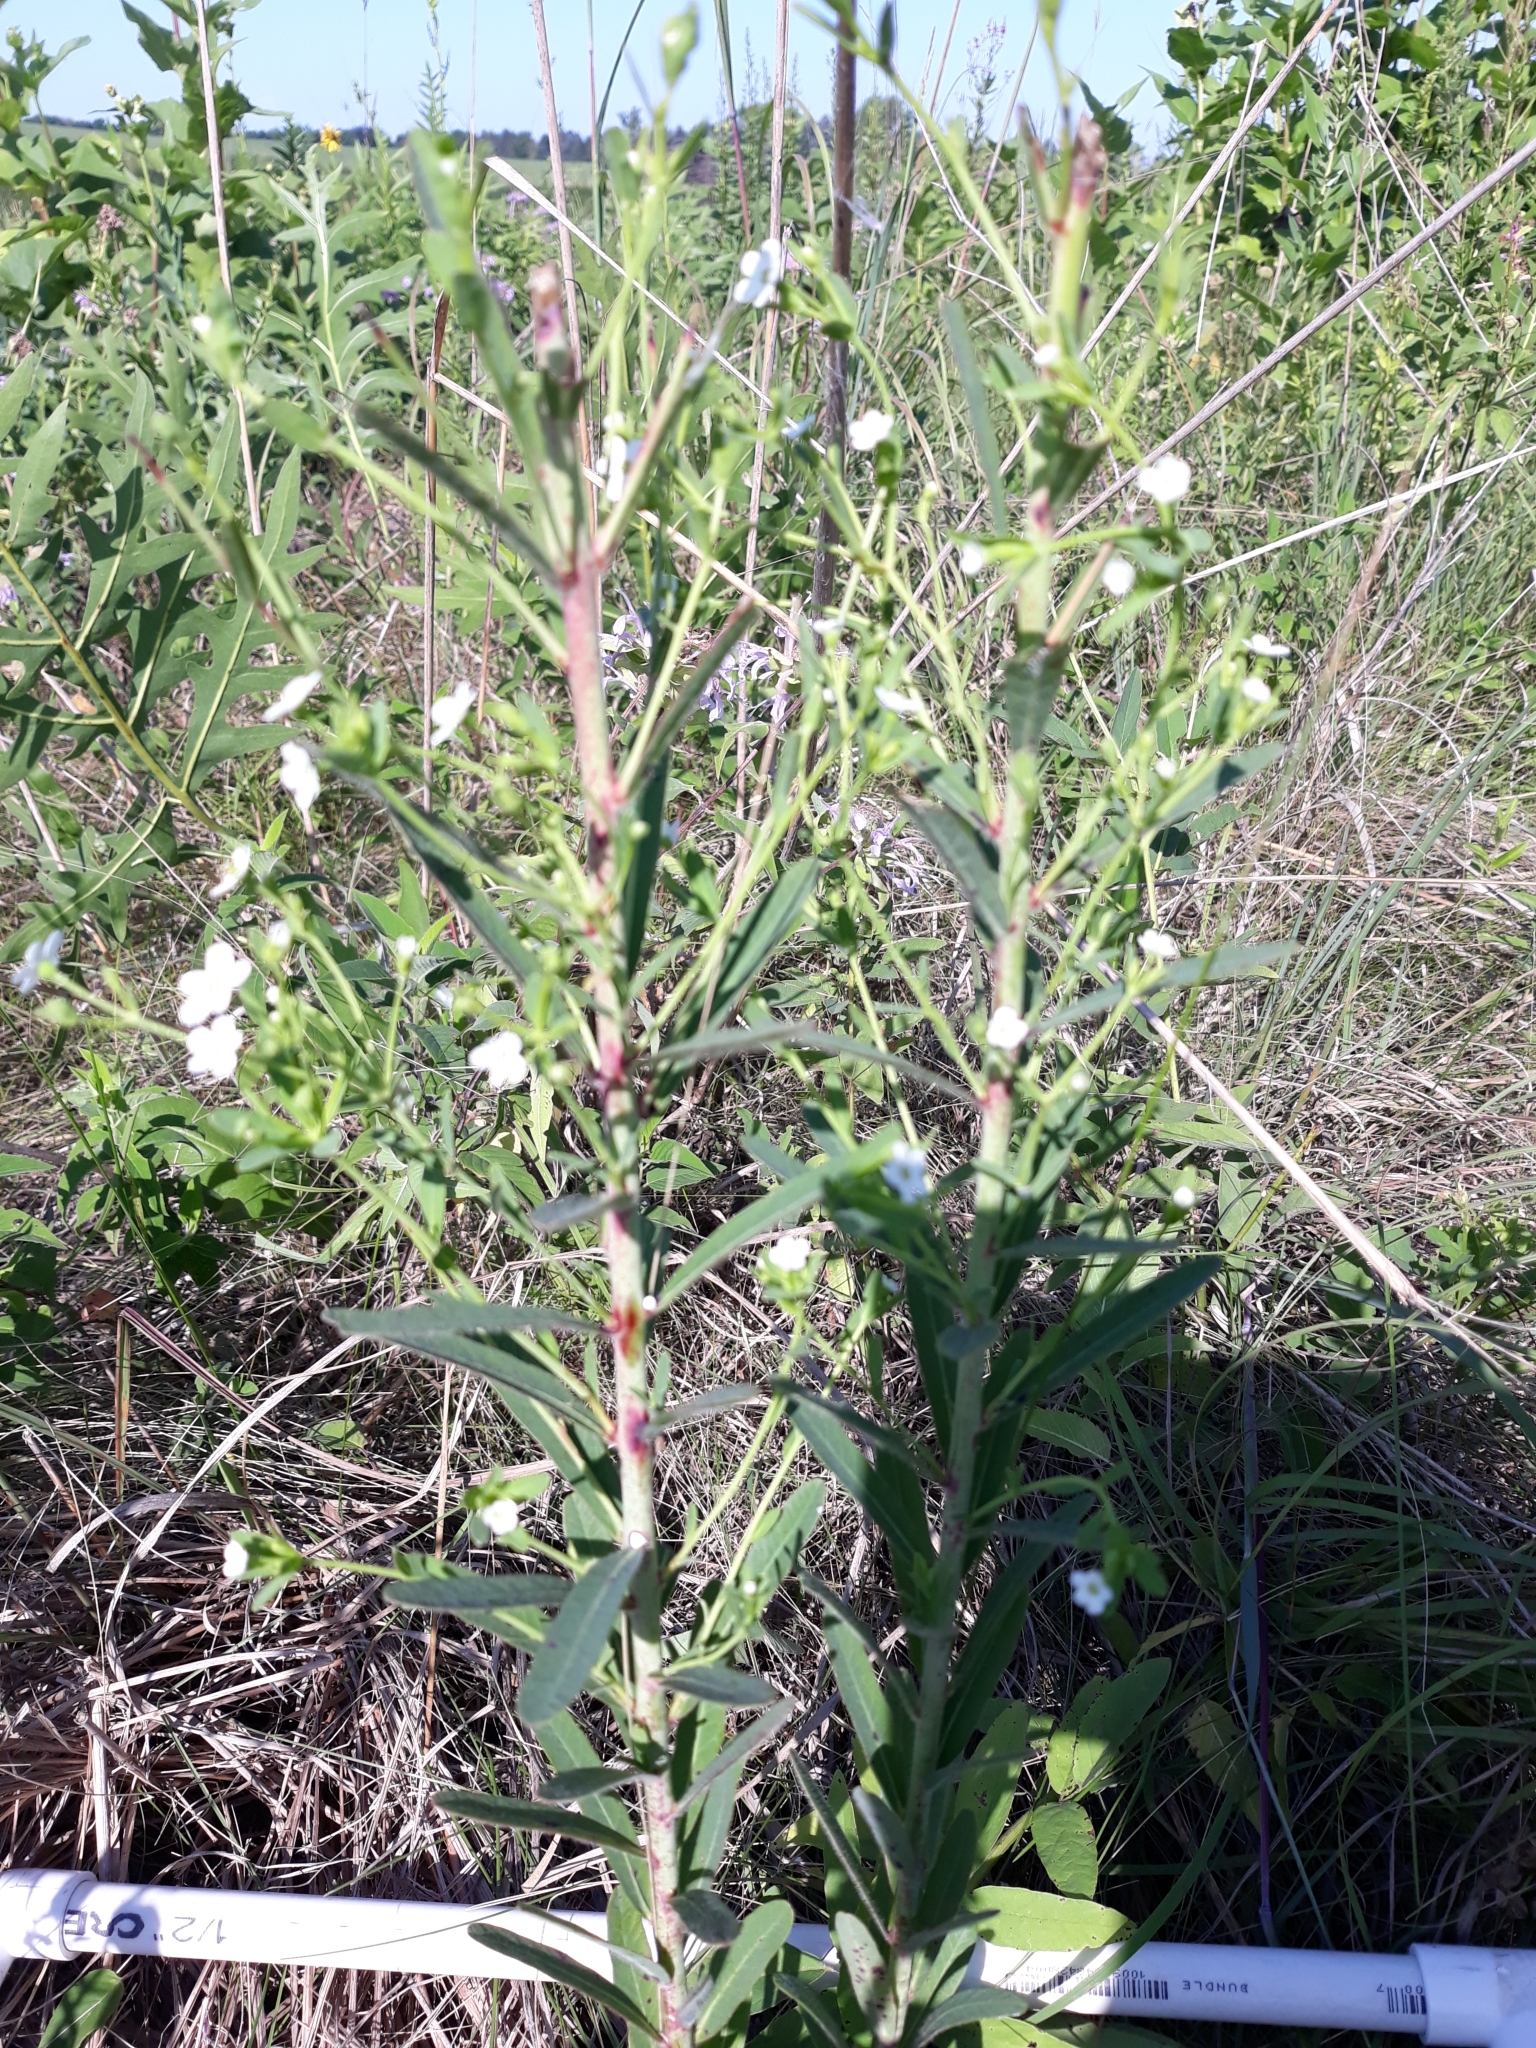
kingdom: Plantae
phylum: Tracheophyta
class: Magnoliopsida
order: Malpighiales
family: Euphorbiaceae
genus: Euphorbia
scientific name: Euphorbia corollata
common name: Flowering spurge
